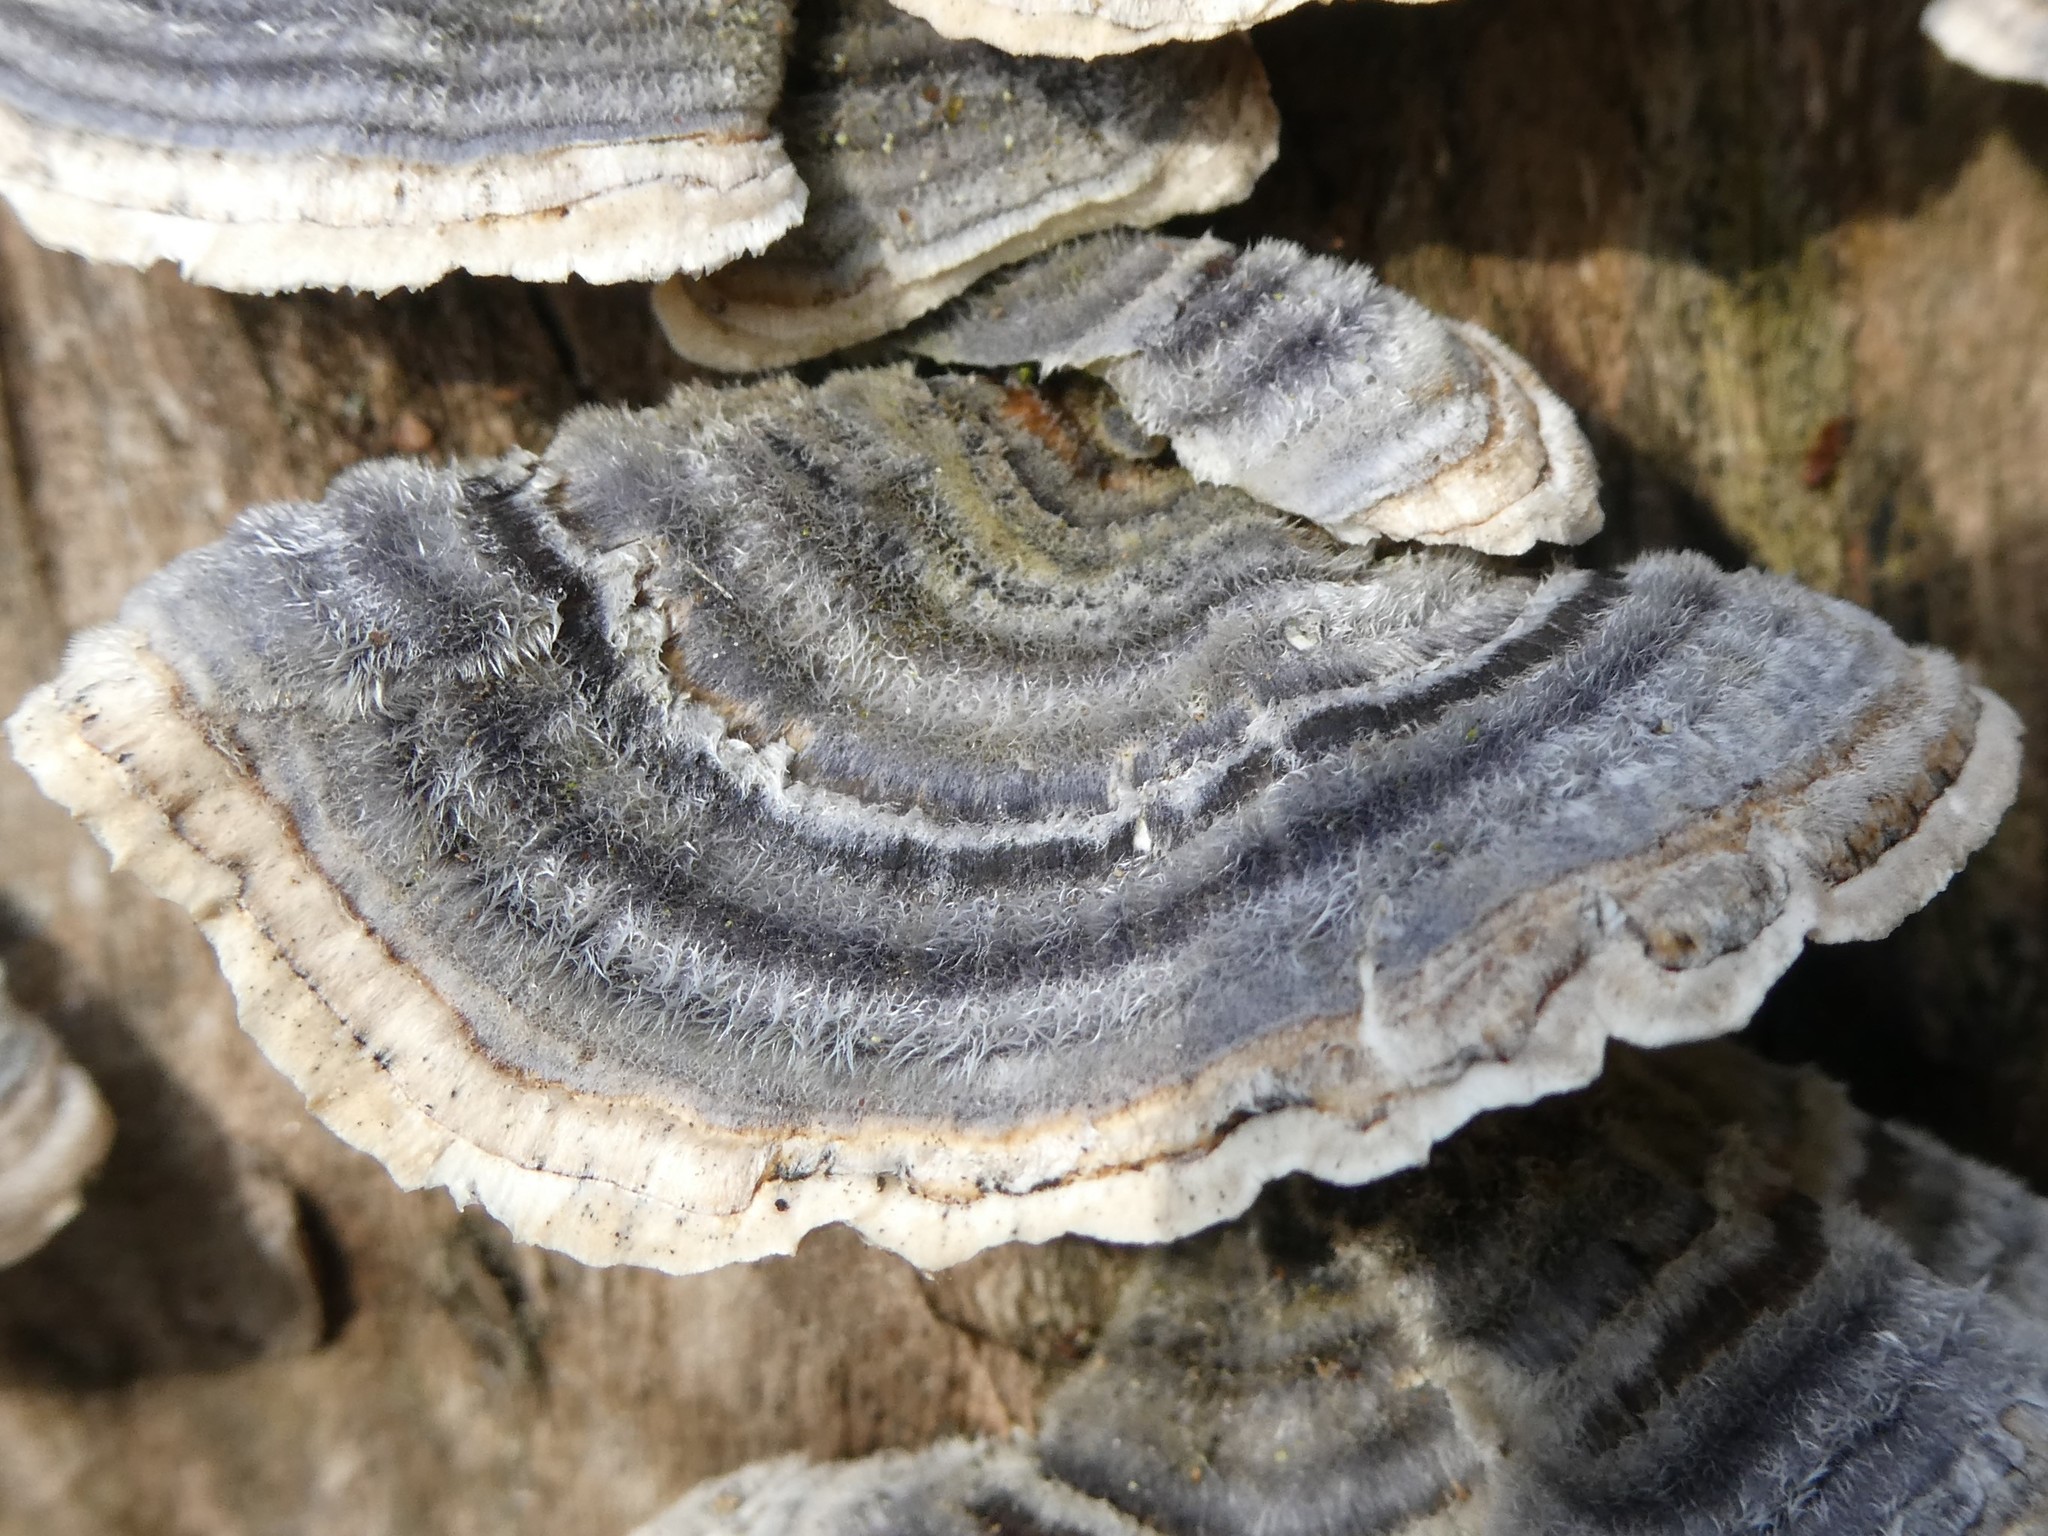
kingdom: Fungi
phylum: Basidiomycota
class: Agaricomycetes
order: Polyporales
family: Polyporaceae
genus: Trametes
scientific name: Trametes versicolor
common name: Turkeytail
